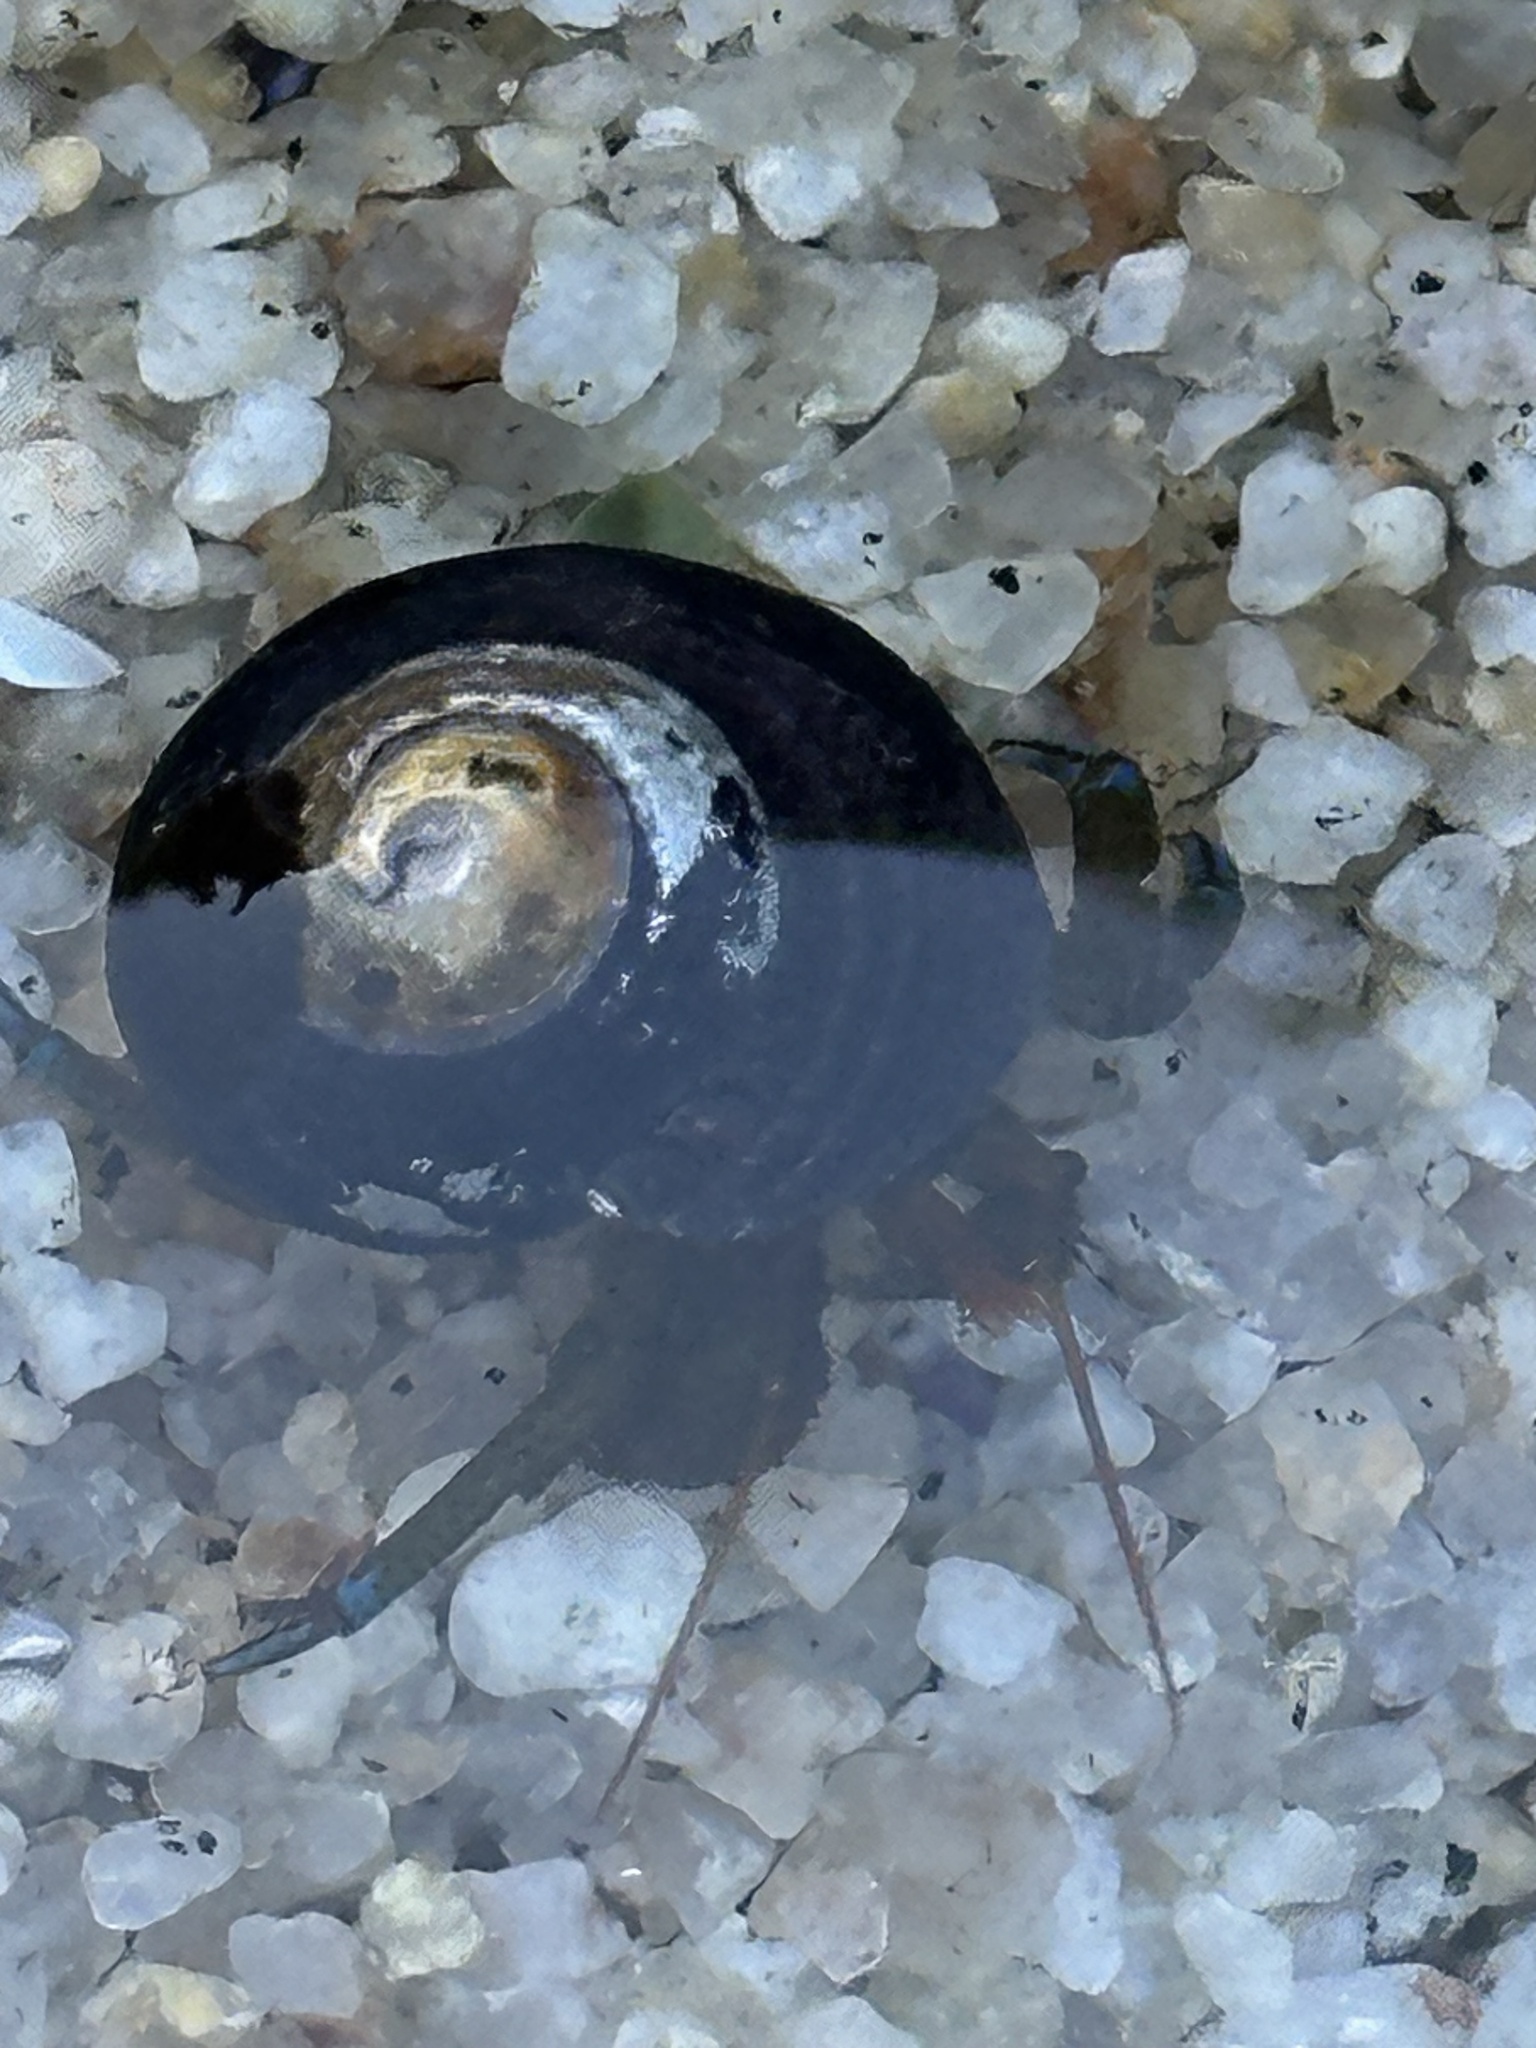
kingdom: Animalia
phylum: Arthropoda
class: Malacostraca
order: Decapoda
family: Paguridae
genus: Pagurus
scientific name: Pagurus samuelis
